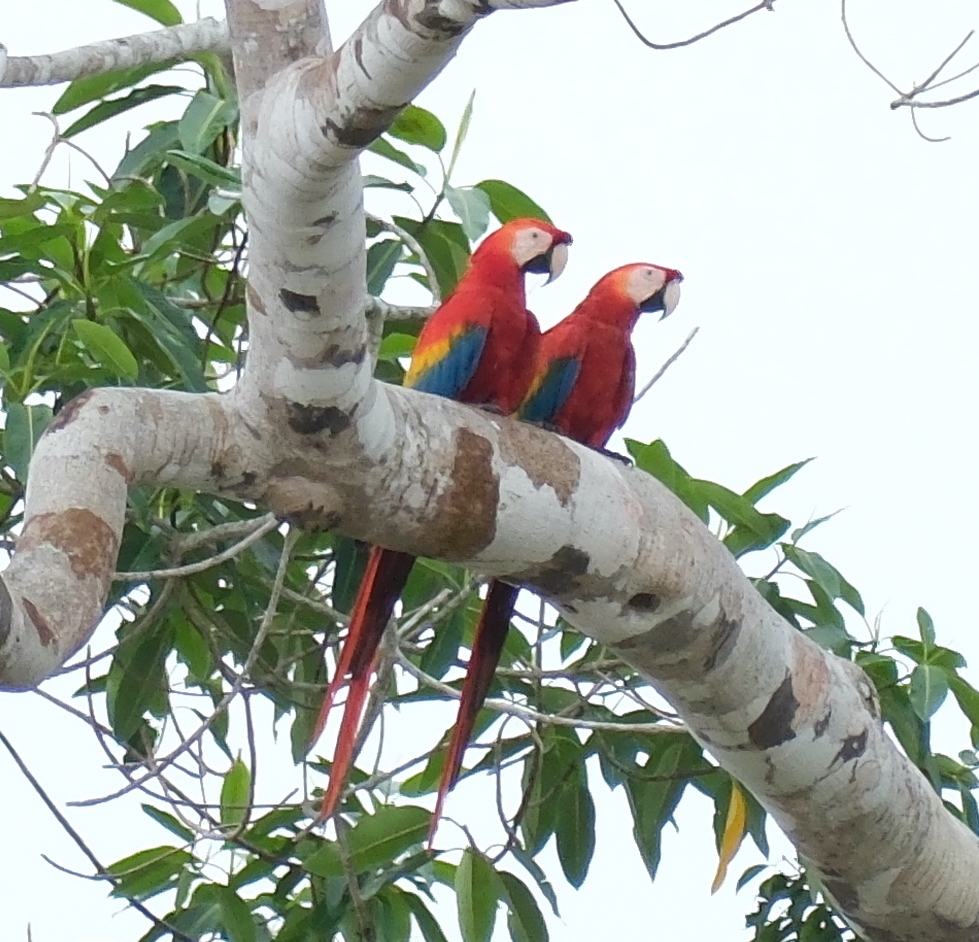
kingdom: Animalia
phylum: Chordata
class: Aves
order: Psittaciformes
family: Psittacidae
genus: Ara
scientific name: Ara macao
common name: Scarlet macaw
